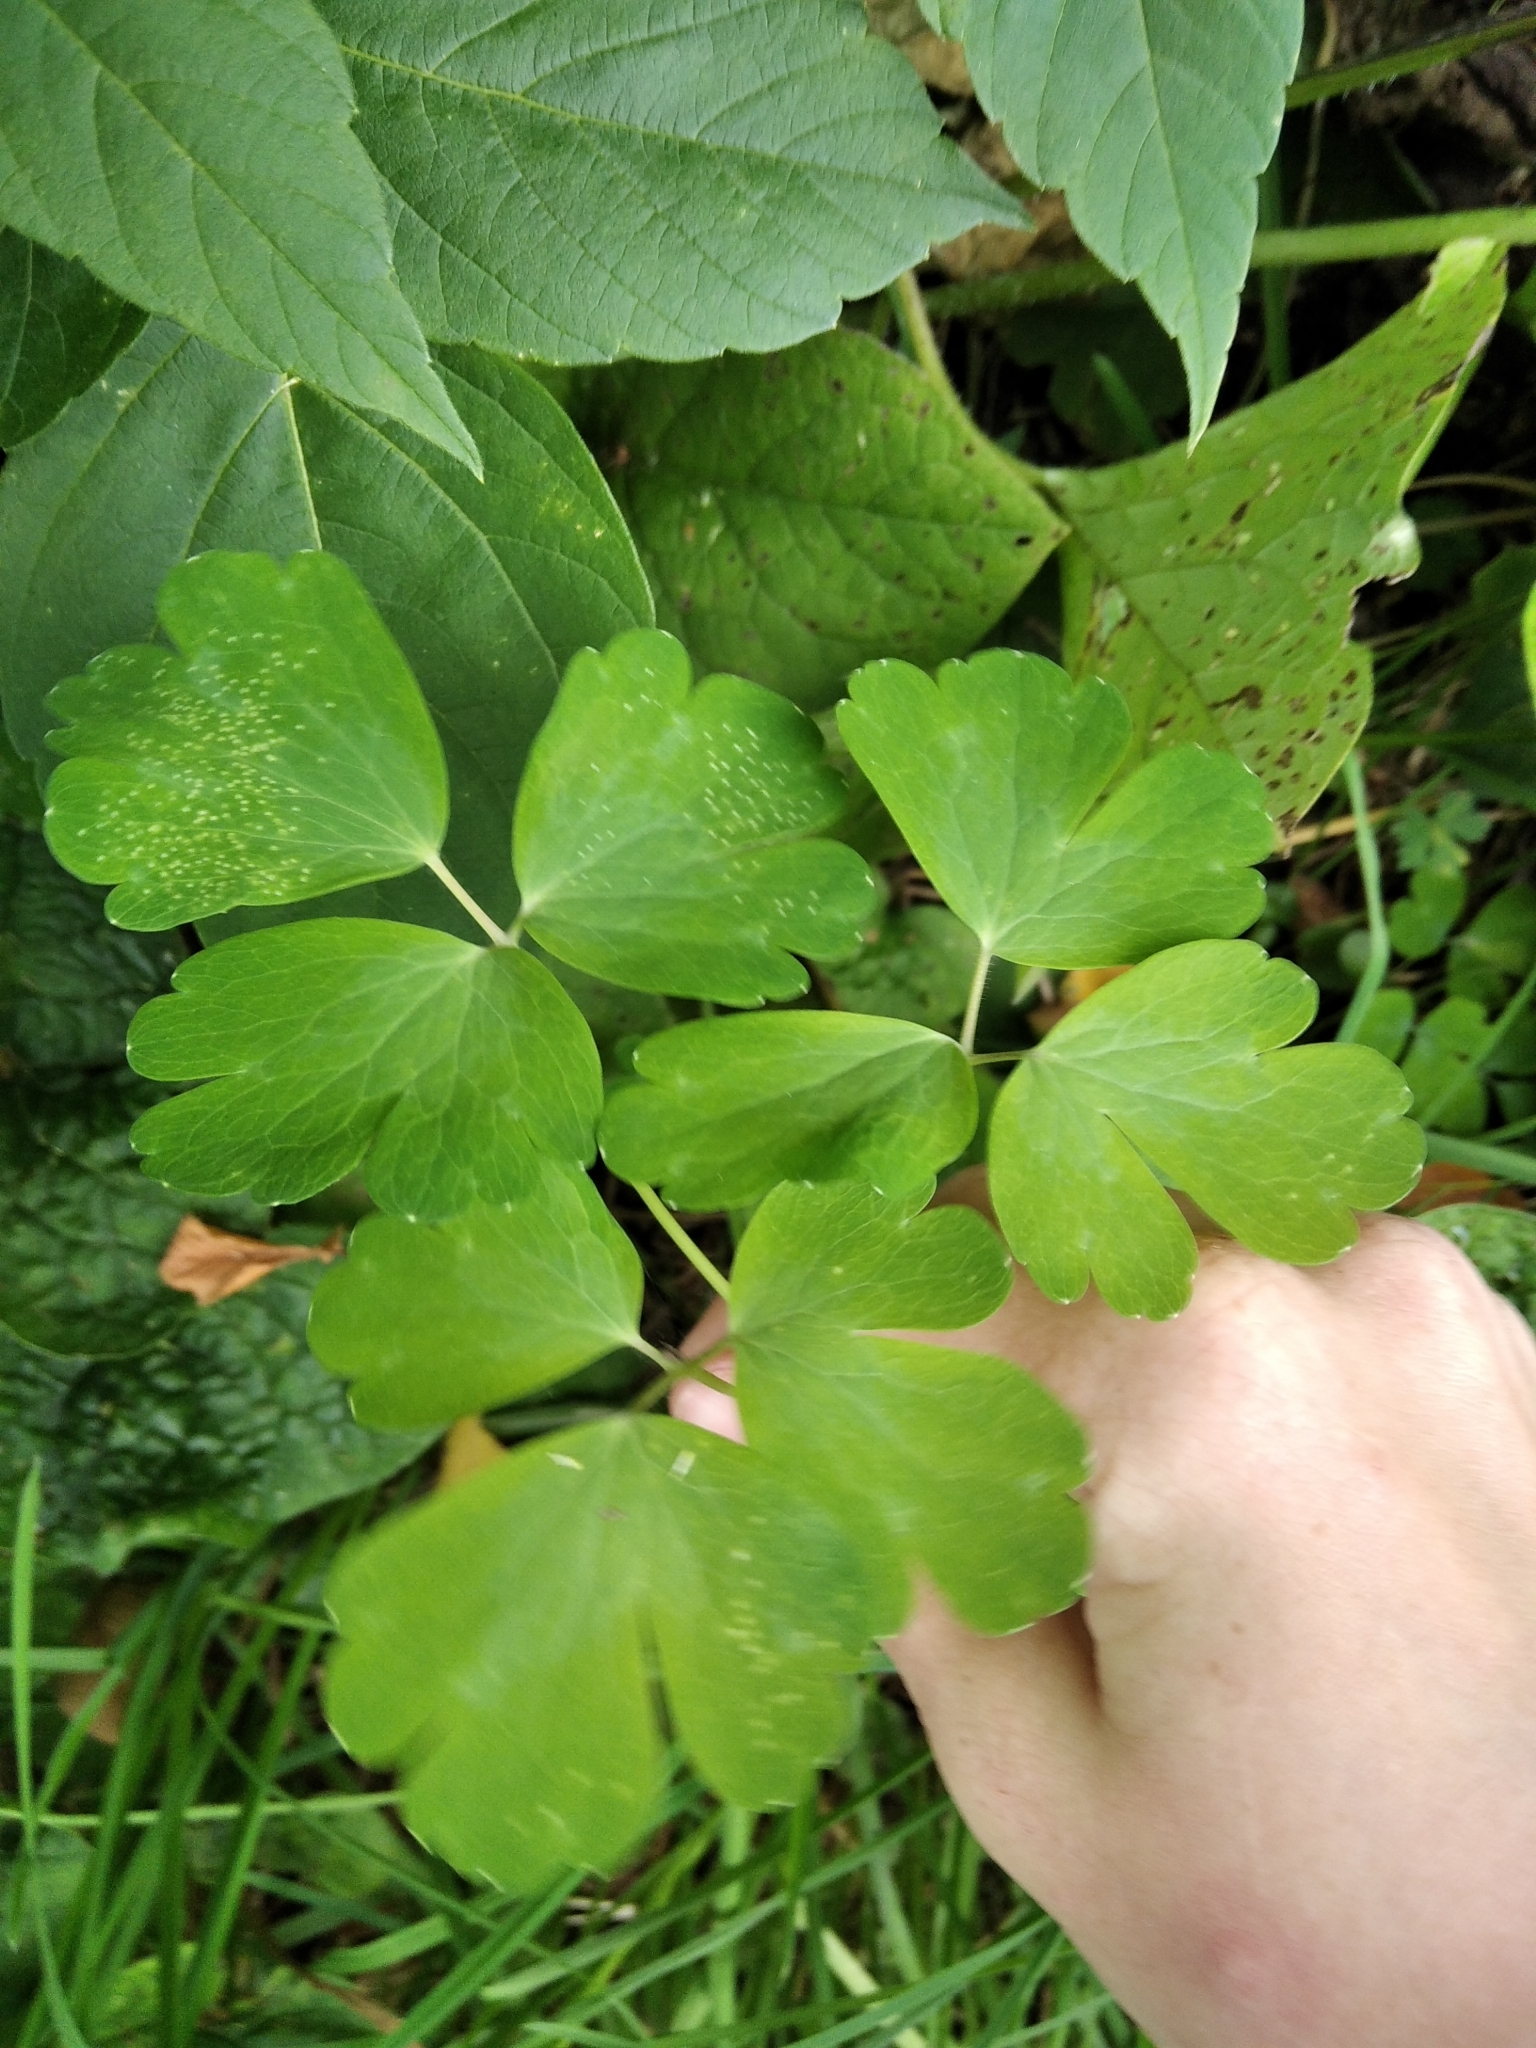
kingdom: Plantae
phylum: Tracheophyta
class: Magnoliopsida
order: Ranunculales
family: Ranunculaceae
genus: Aquilegia
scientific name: Aquilegia vulgaris
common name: Columbine
